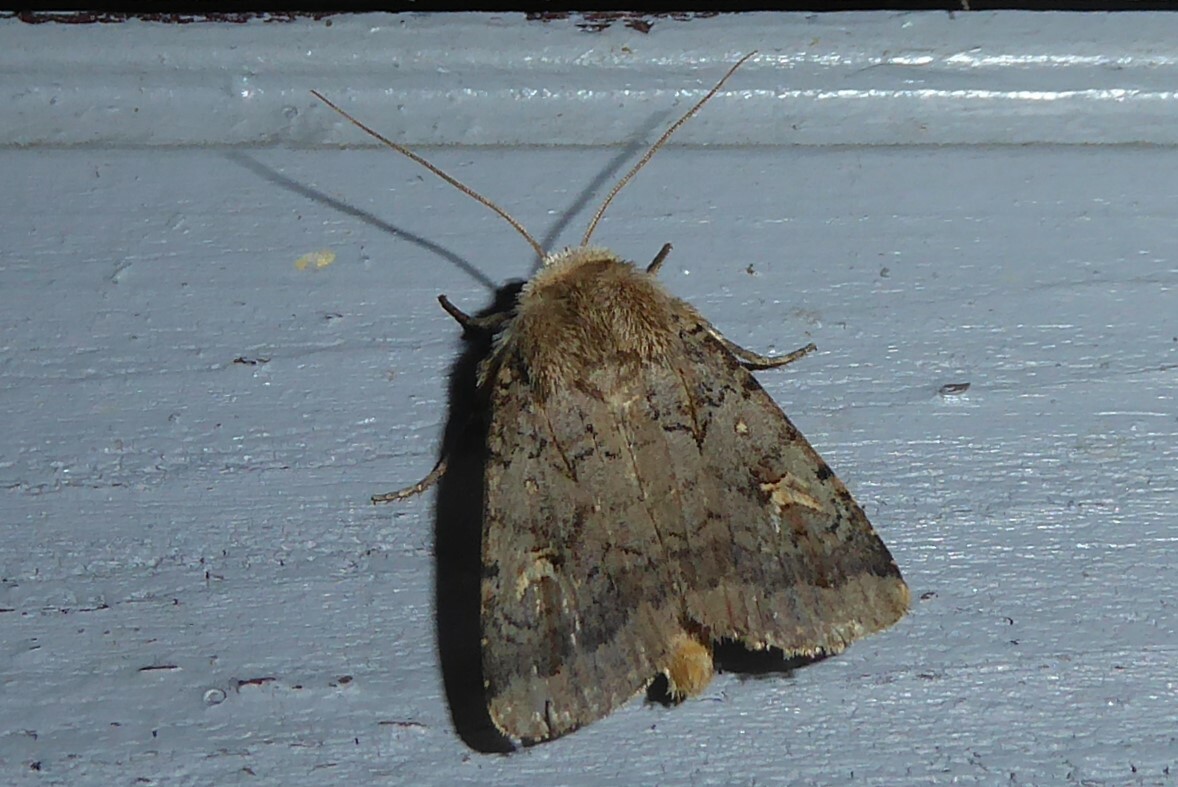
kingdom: Animalia
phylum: Arthropoda
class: Insecta
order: Lepidoptera
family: Noctuidae
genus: Proteuxoa
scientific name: Proteuxoa tetronycha
